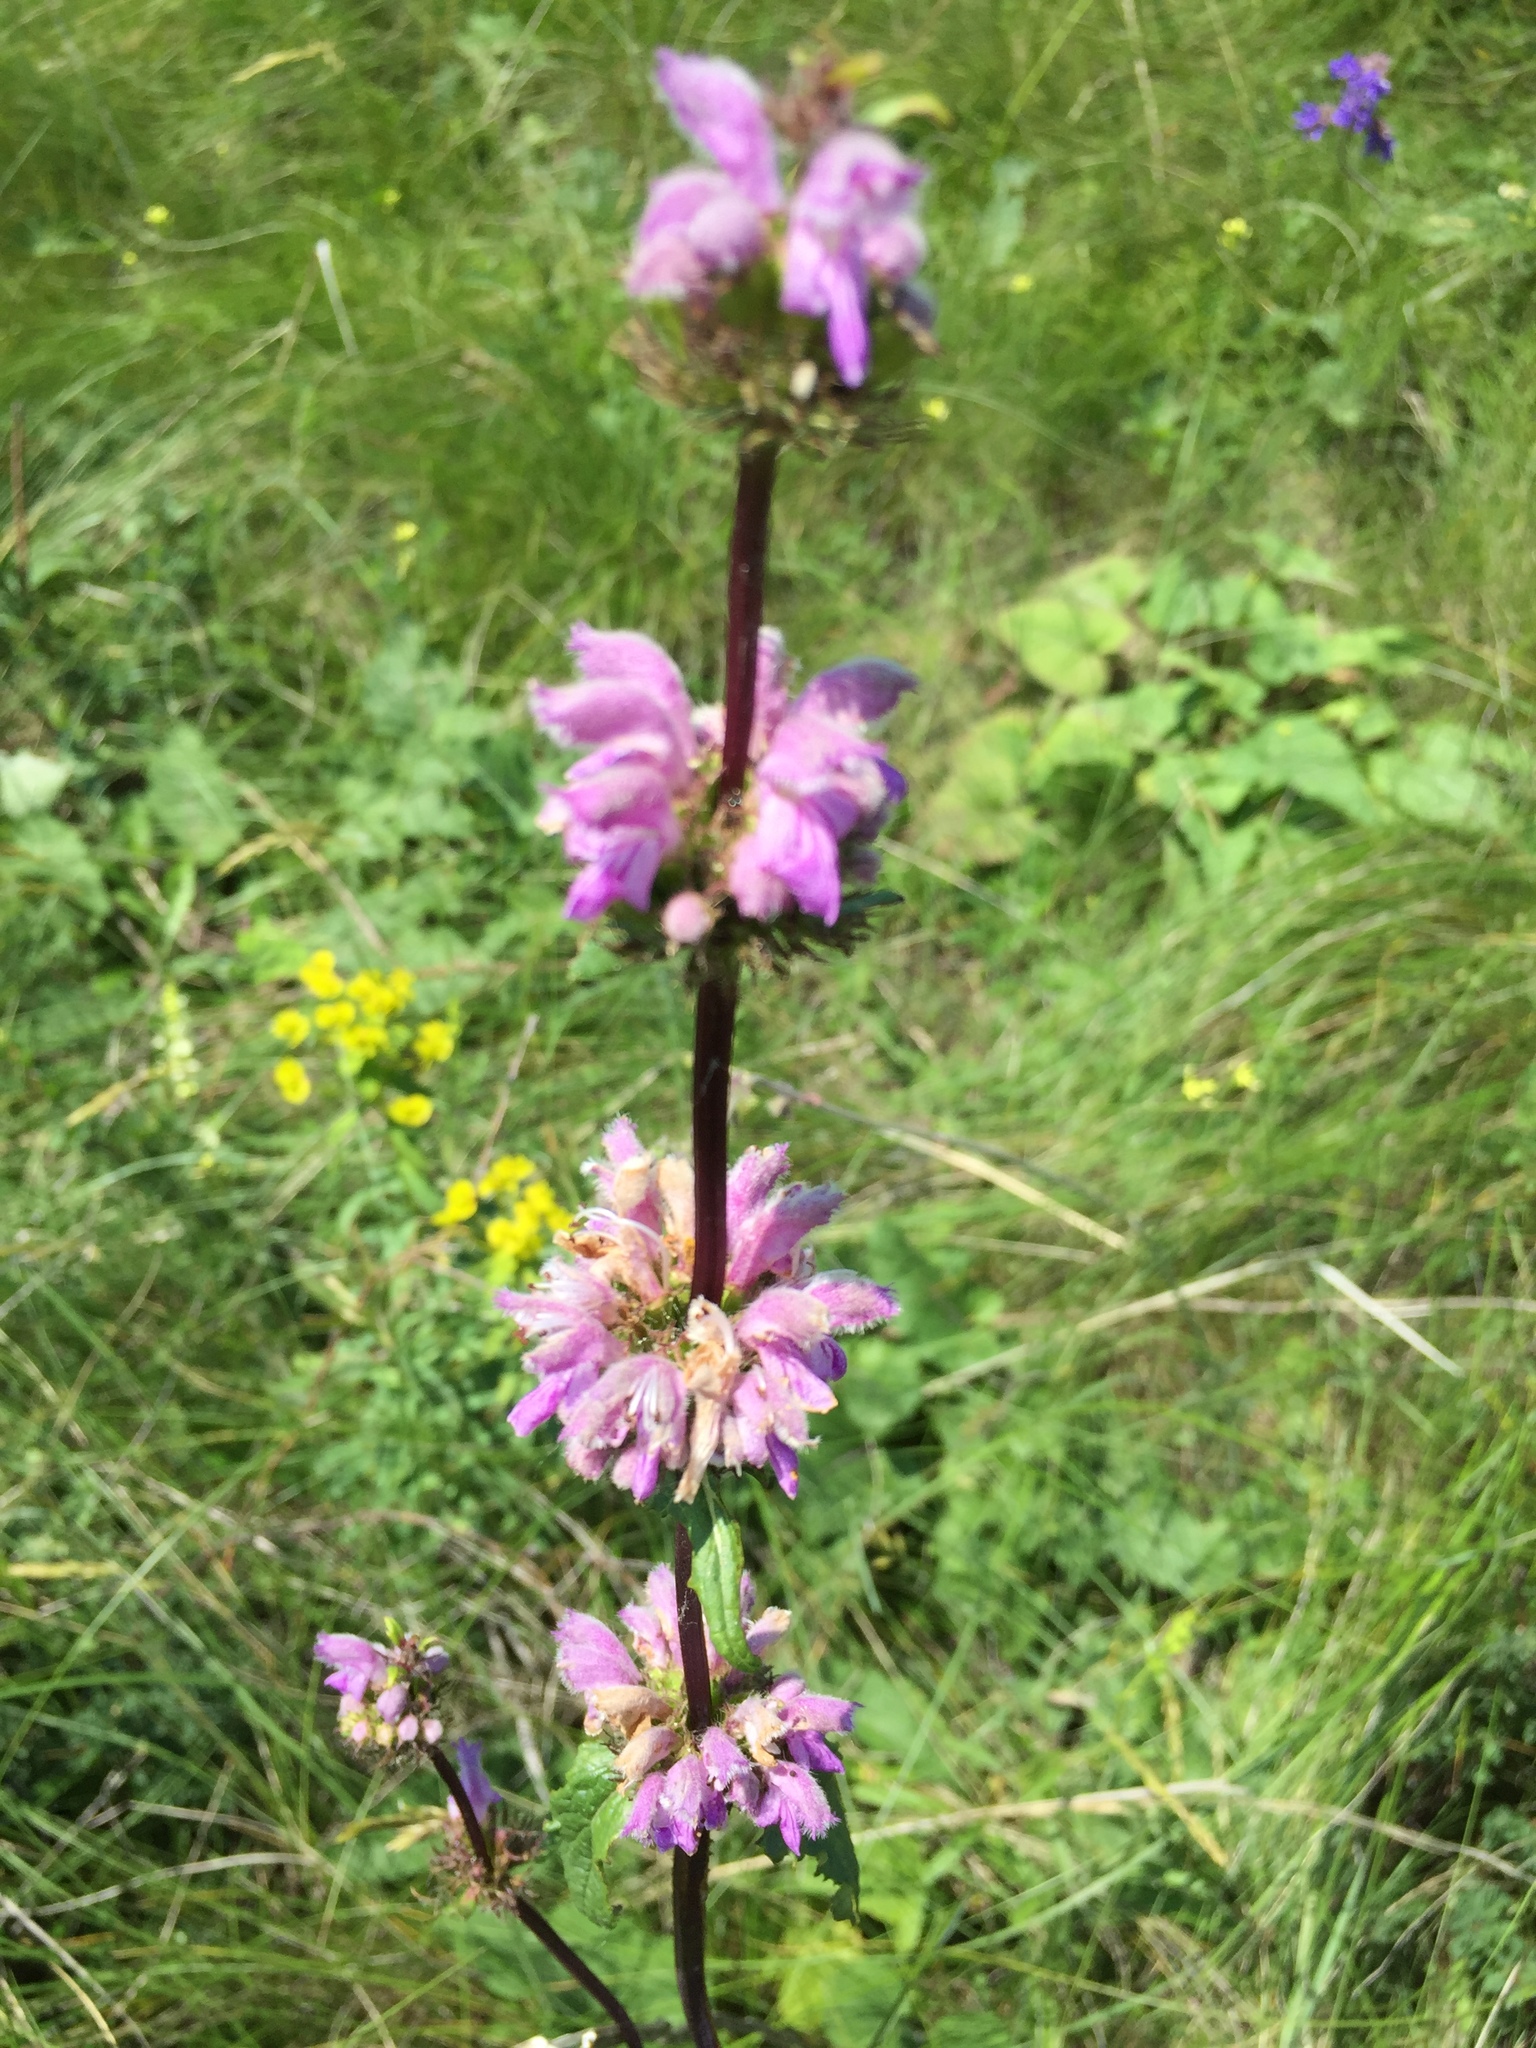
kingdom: Plantae
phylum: Tracheophyta
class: Magnoliopsida
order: Lamiales
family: Lamiaceae
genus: Phlomoides
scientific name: Phlomoides tuberosa
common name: Tuberous jerusalem sage
